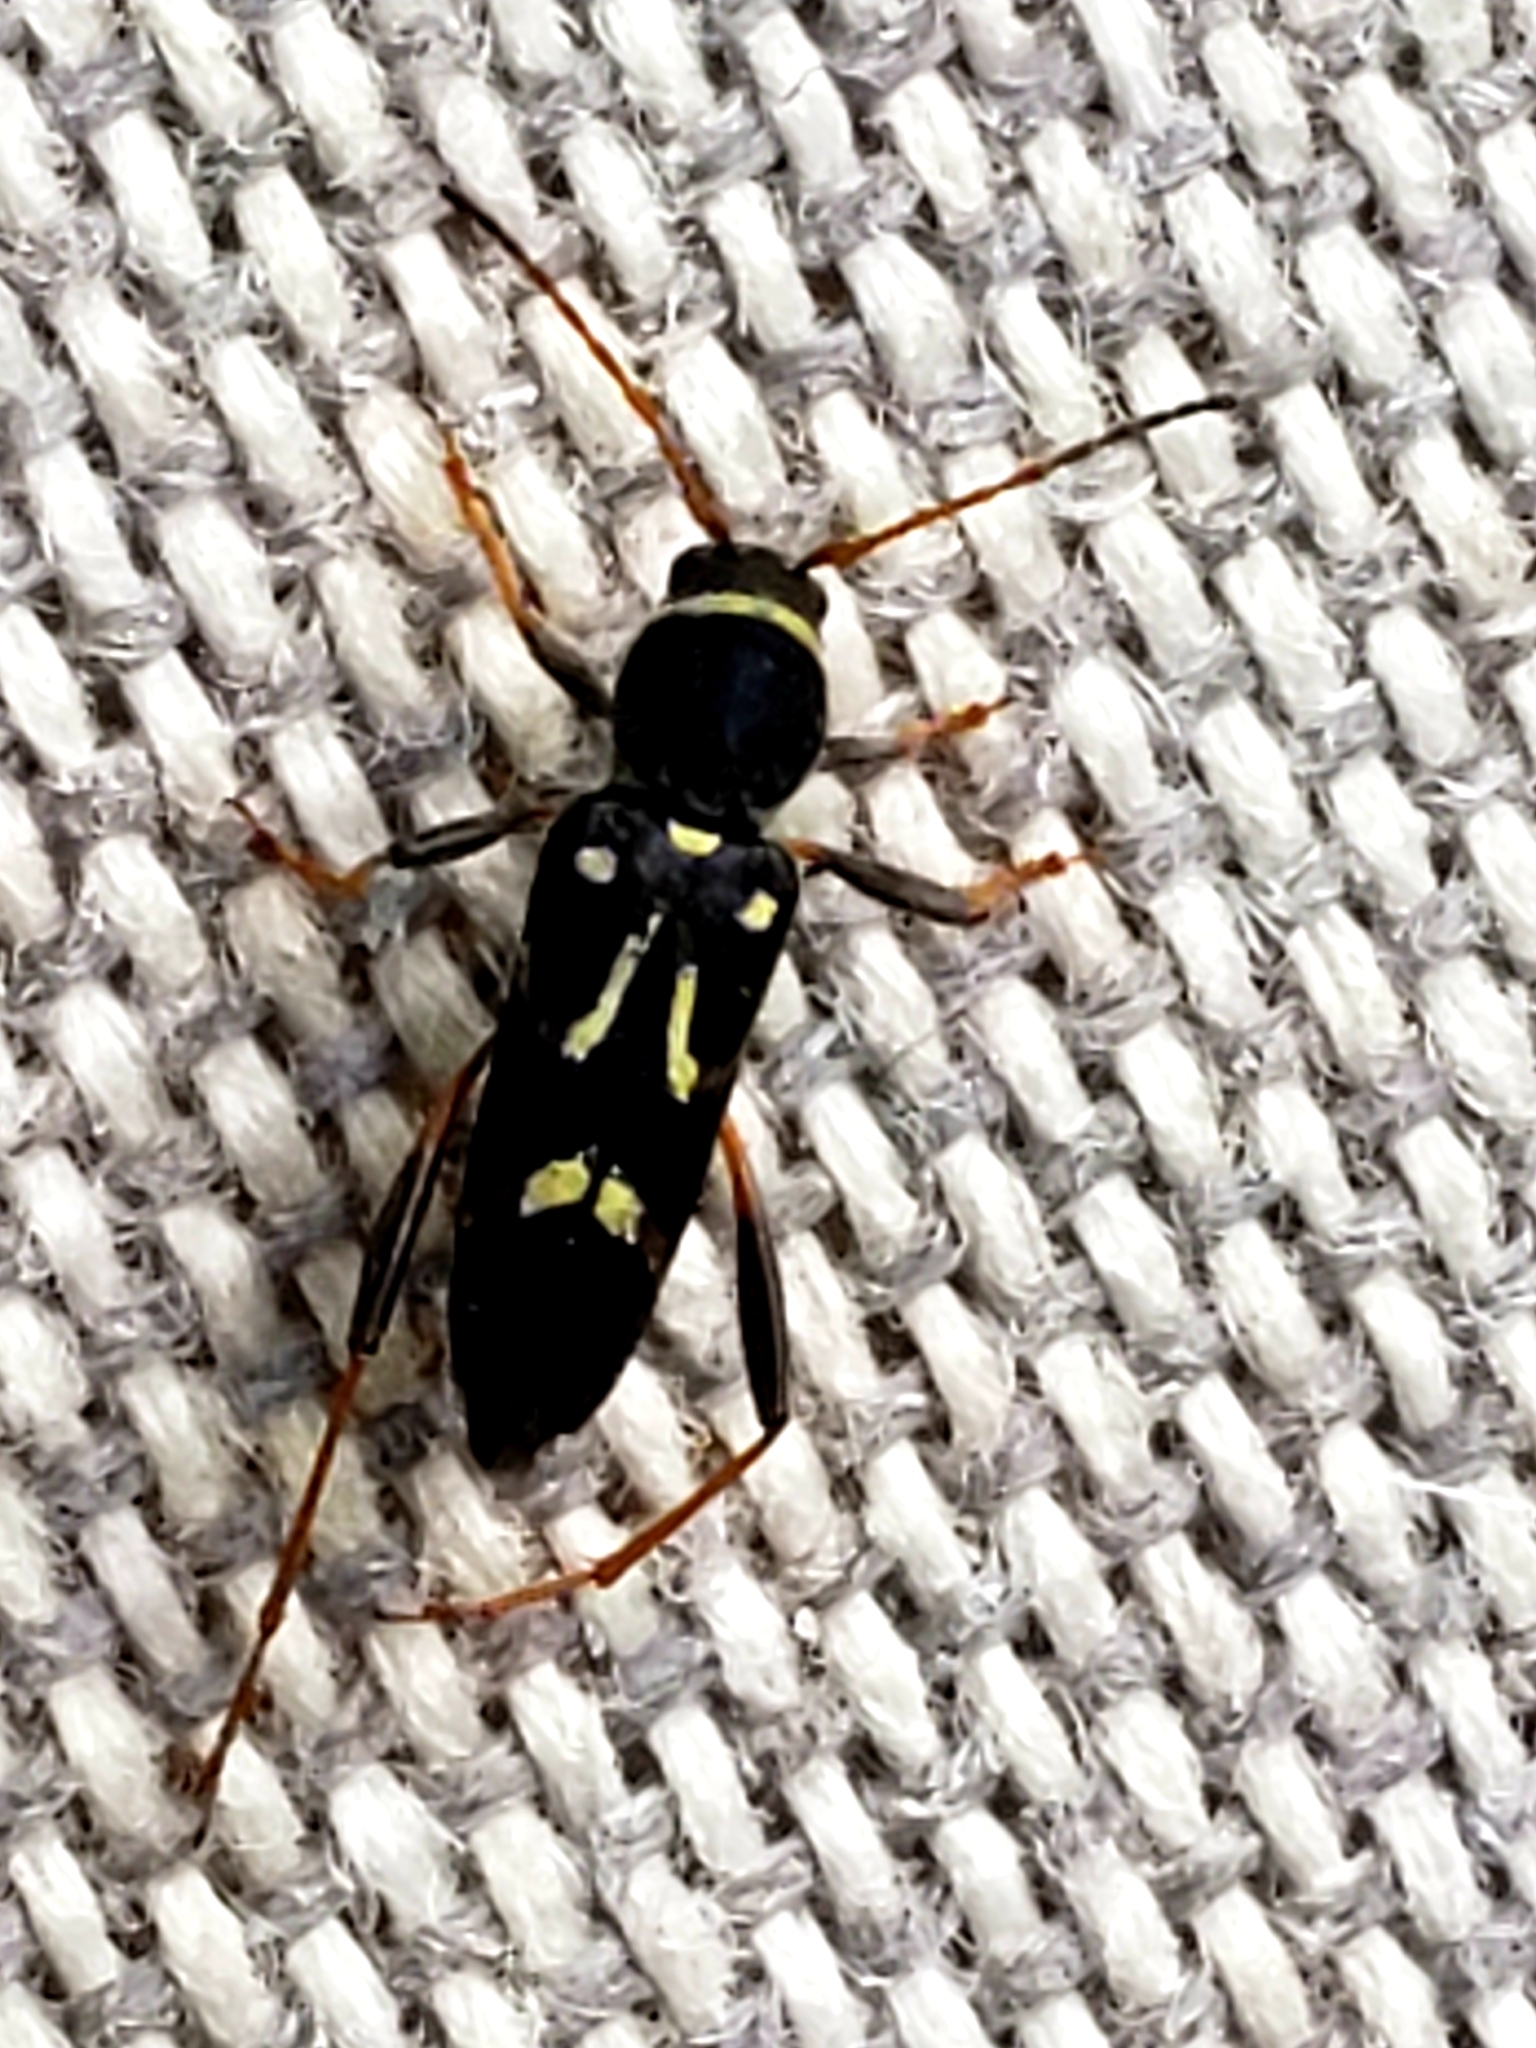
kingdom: Animalia
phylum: Arthropoda
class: Insecta
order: Coleoptera
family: Cerambycidae
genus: Clytus
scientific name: Clytus ruricola
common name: Round-necked longhorn beetle
